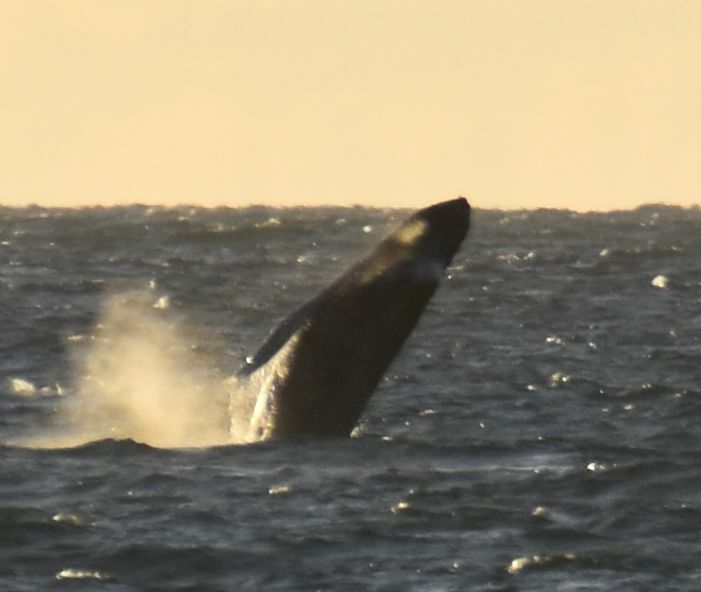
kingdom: Animalia
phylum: Chordata
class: Mammalia
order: Cetacea
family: Balaenopteridae
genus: Megaptera
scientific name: Megaptera novaeangliae
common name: Humpback whale
